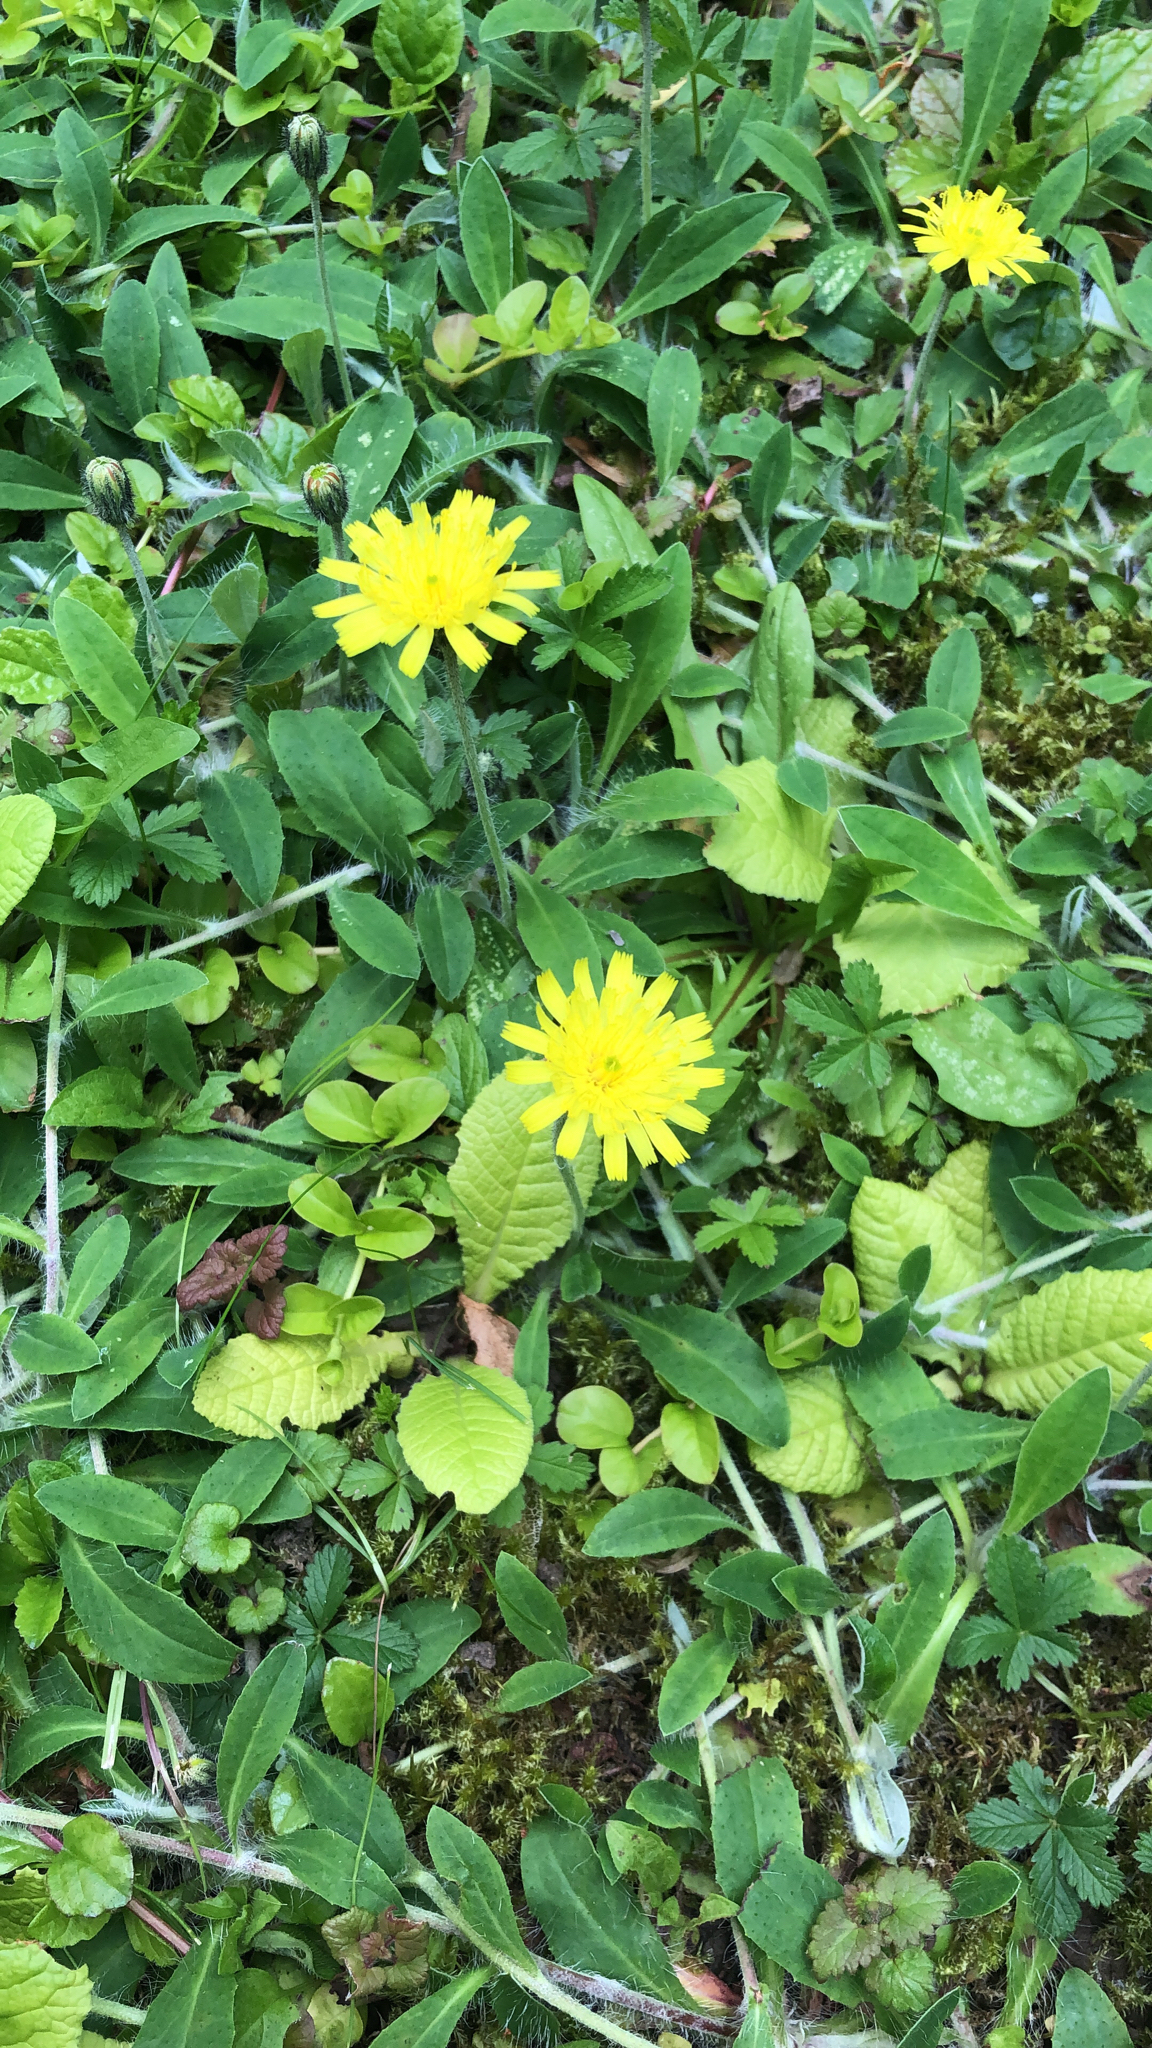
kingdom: Plantae
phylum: Tracheophyta
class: Magnoliopsida
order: Asterales
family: Asteraceae
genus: Pilosella
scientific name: Pilosella officinarum
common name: Mouse-ear hawkweed
